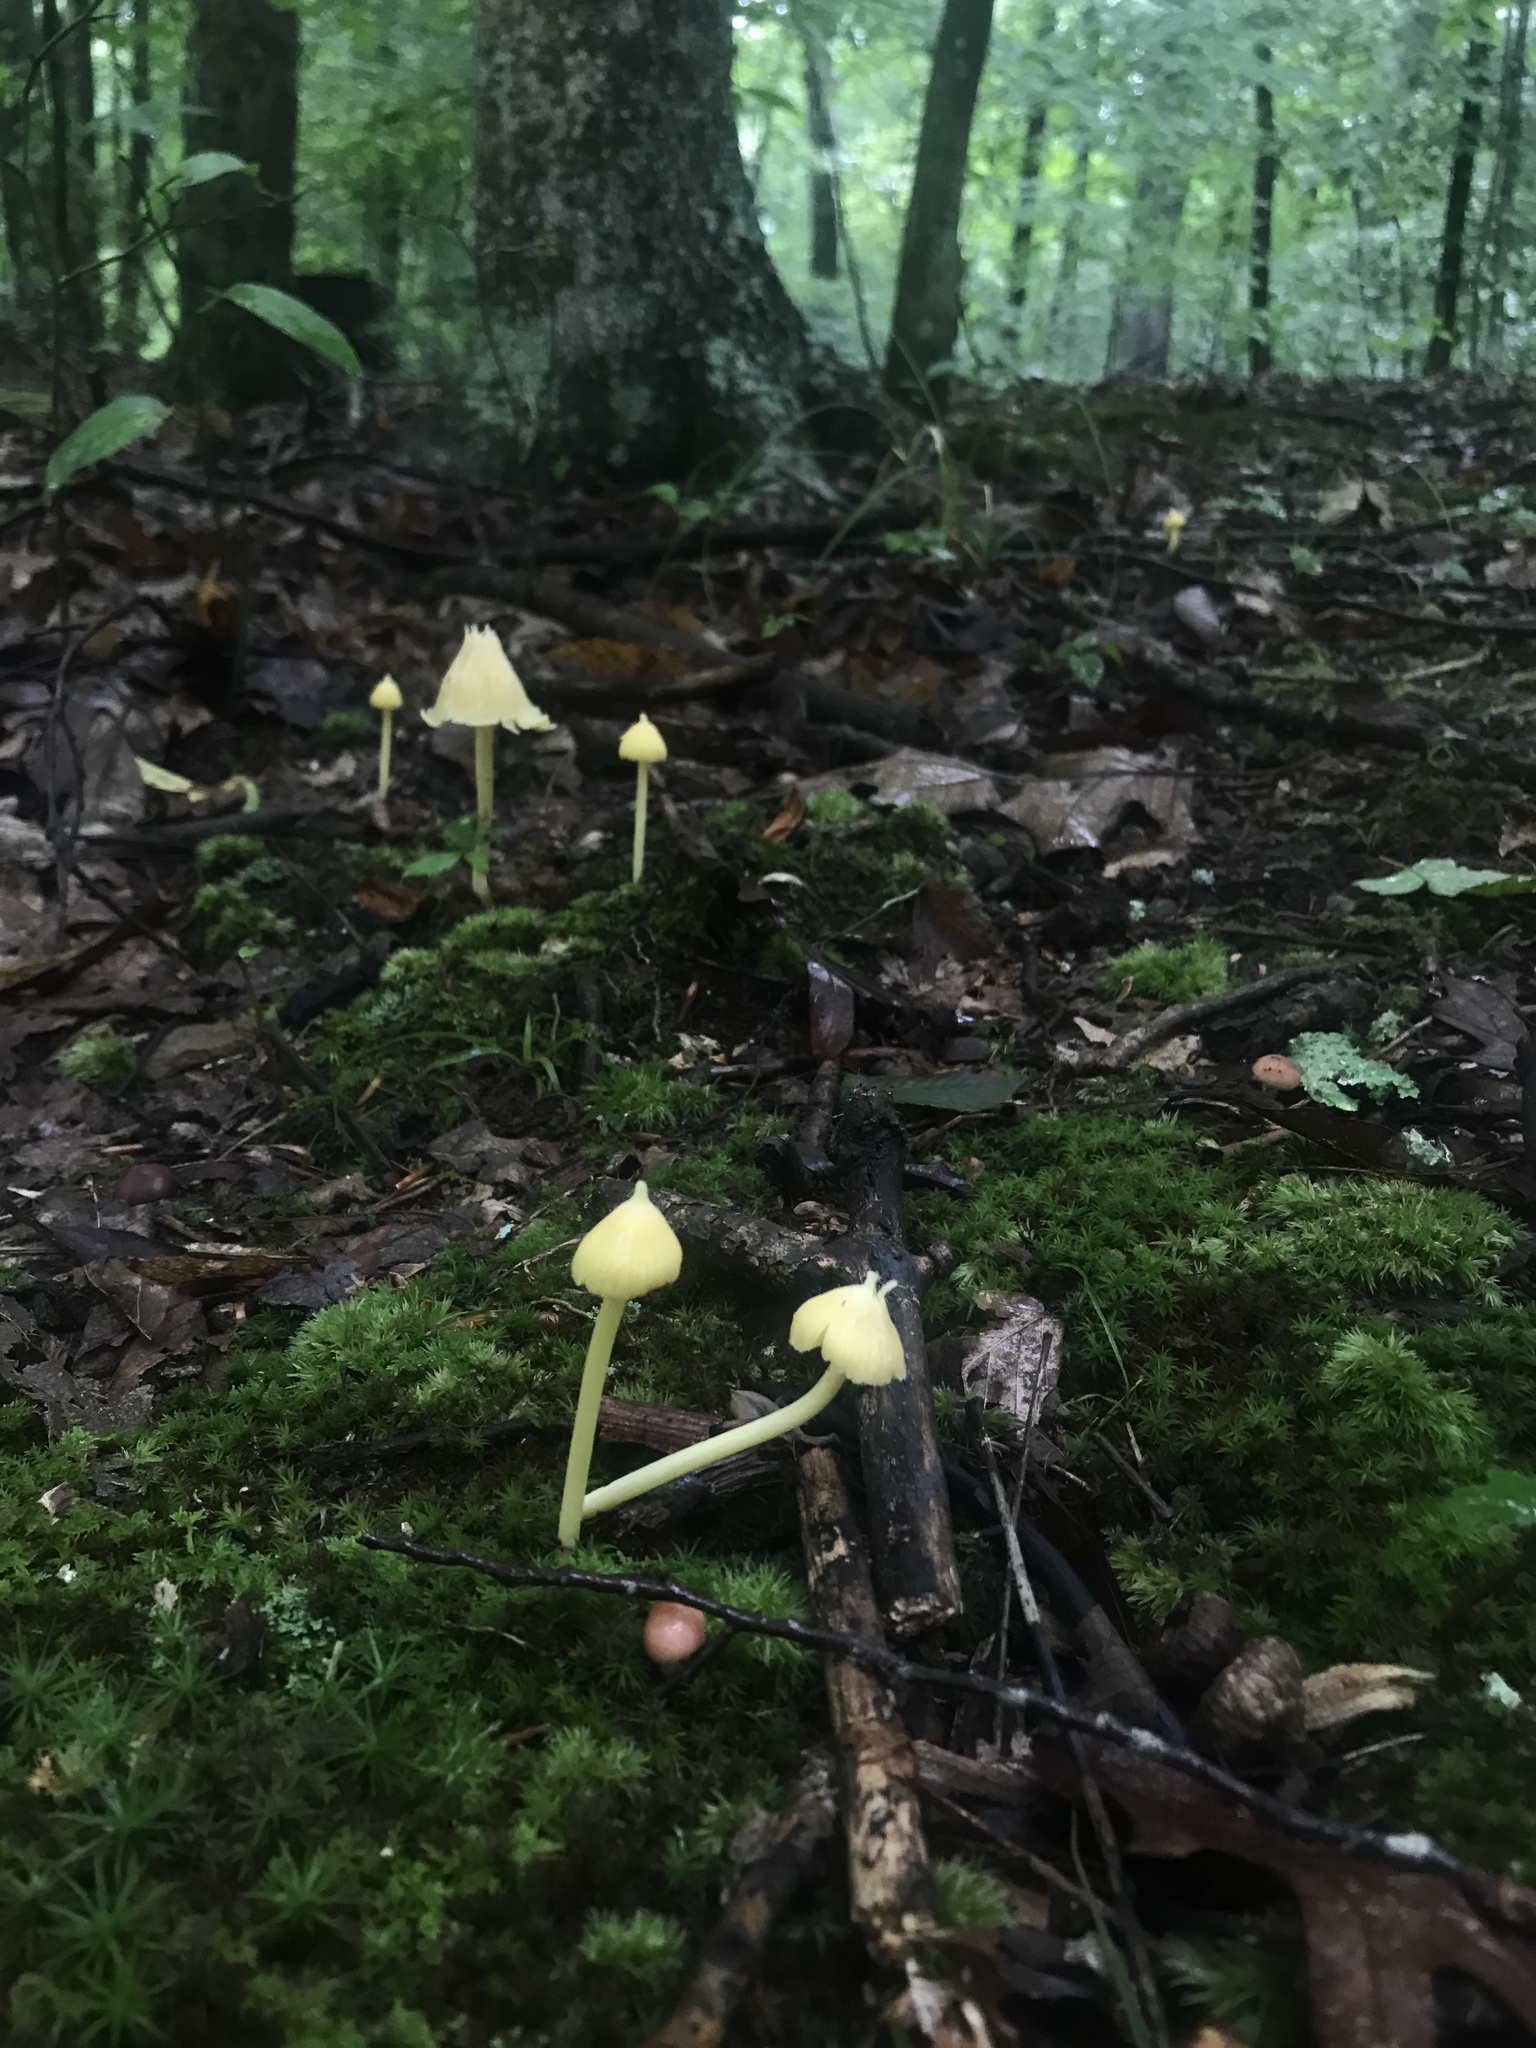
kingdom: Fungi
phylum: Basidiomycota
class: Agaricomycetes
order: Agaricales
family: Entolomataceae
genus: Entoloma
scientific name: Entoloma murrayi
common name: Yellow unicorn entoloma
